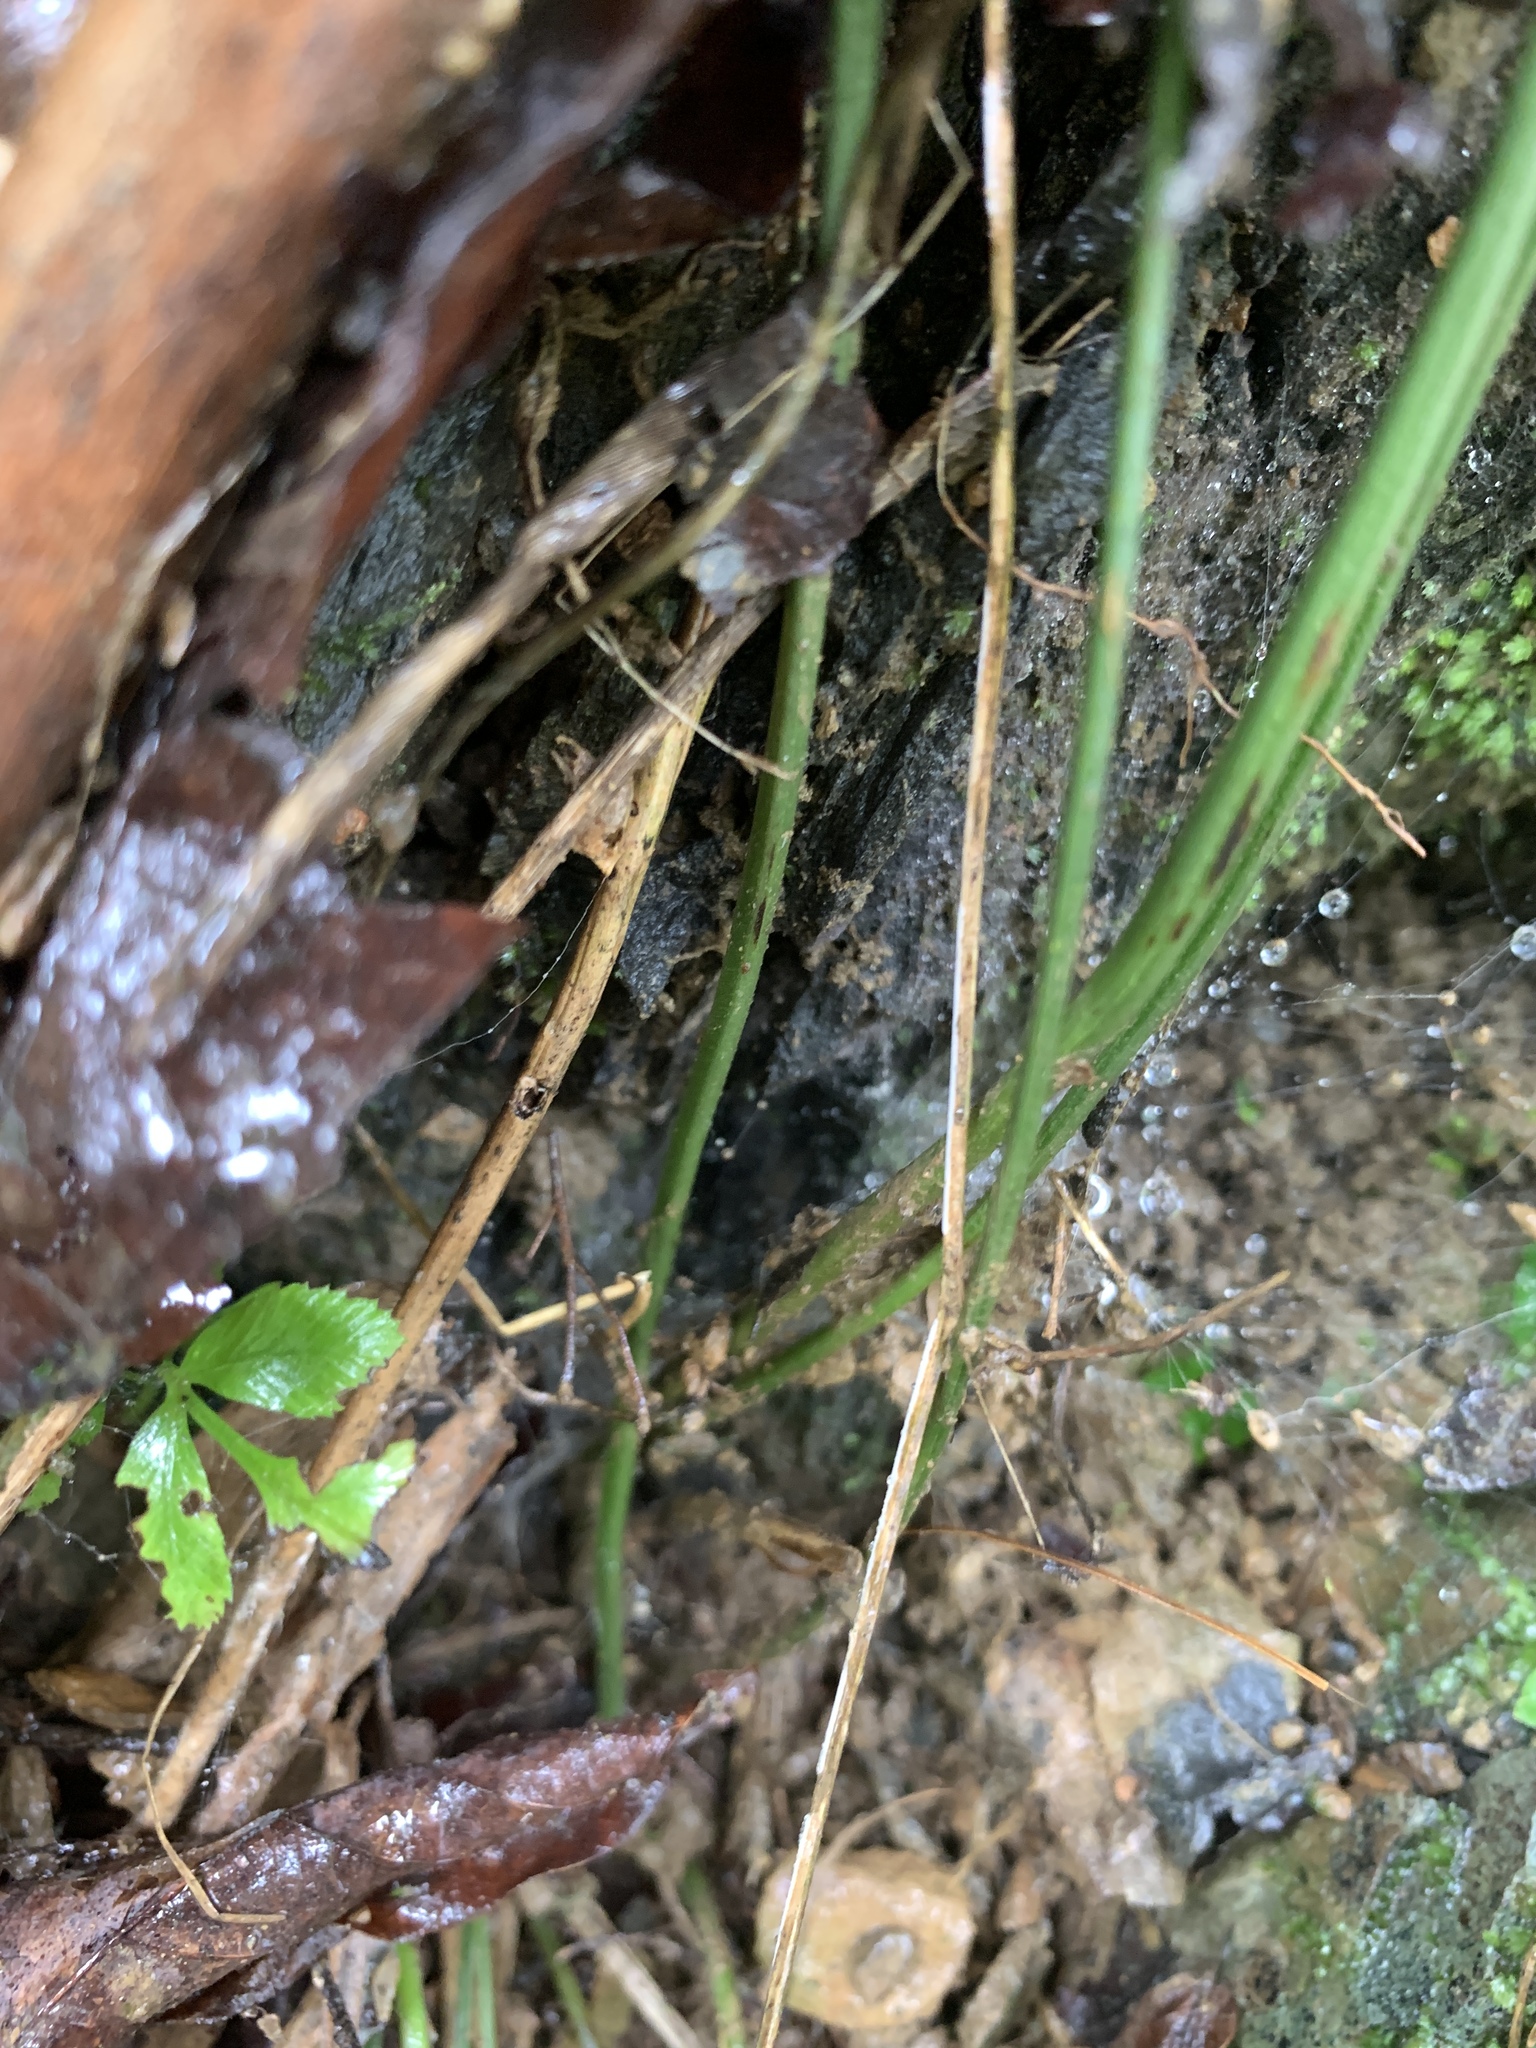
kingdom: Plantae
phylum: Tracheophyta
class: Polypodiopsida
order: Polypodiales
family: Pteridaceae
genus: Pteris
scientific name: Pteris ensiformis
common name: Sword brake
